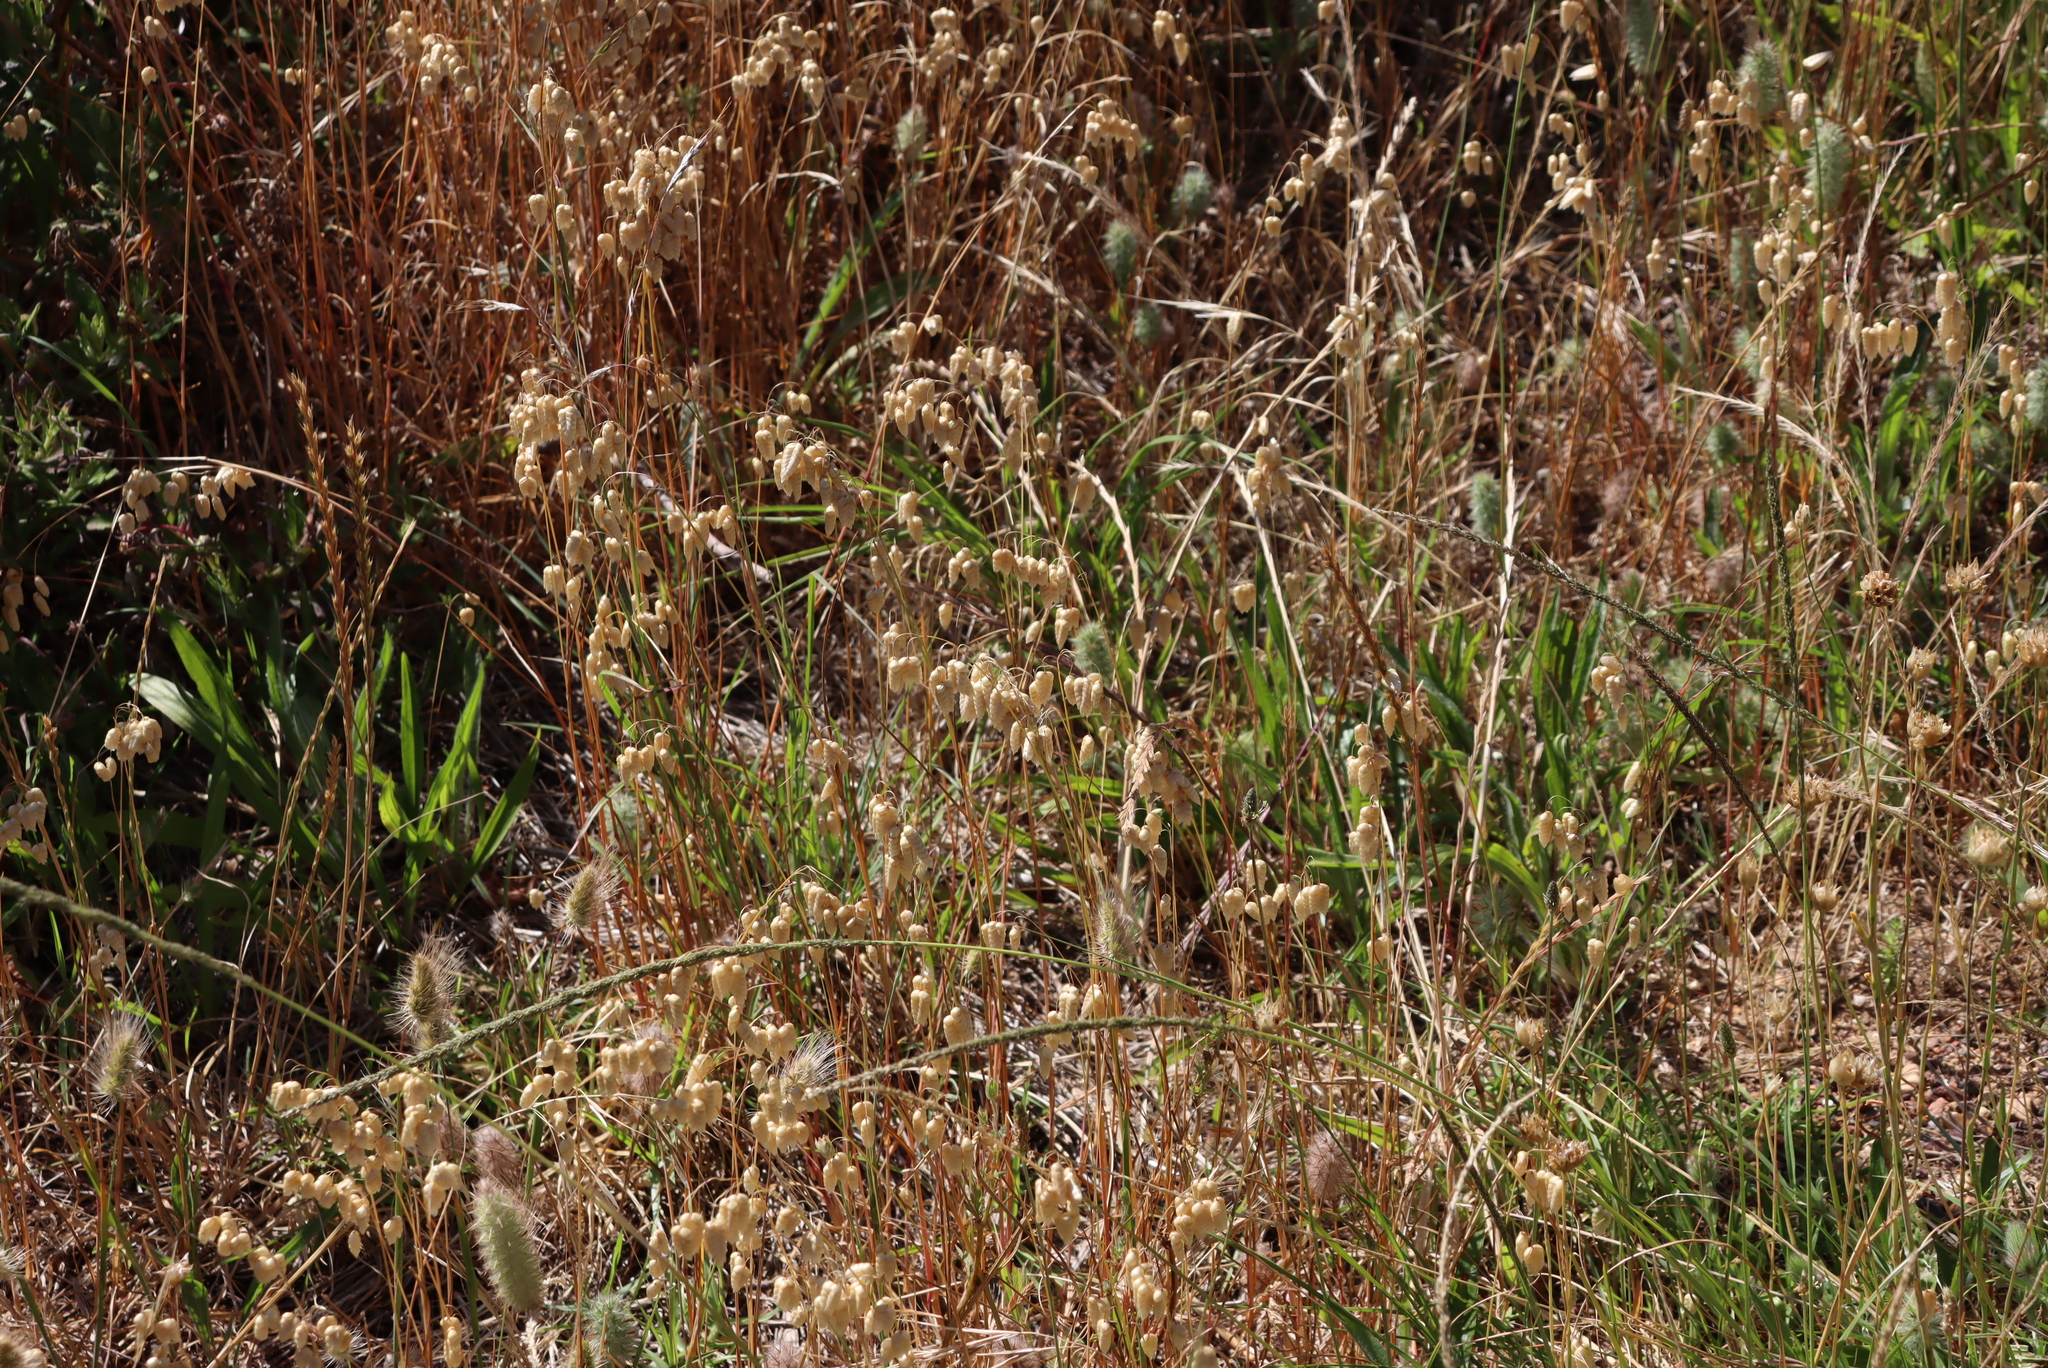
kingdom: Plantae
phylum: Tracheophyta
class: Liliopsida
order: Poales
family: Poaceae
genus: Briza
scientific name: Briza maxima
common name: Big quakinggrass
